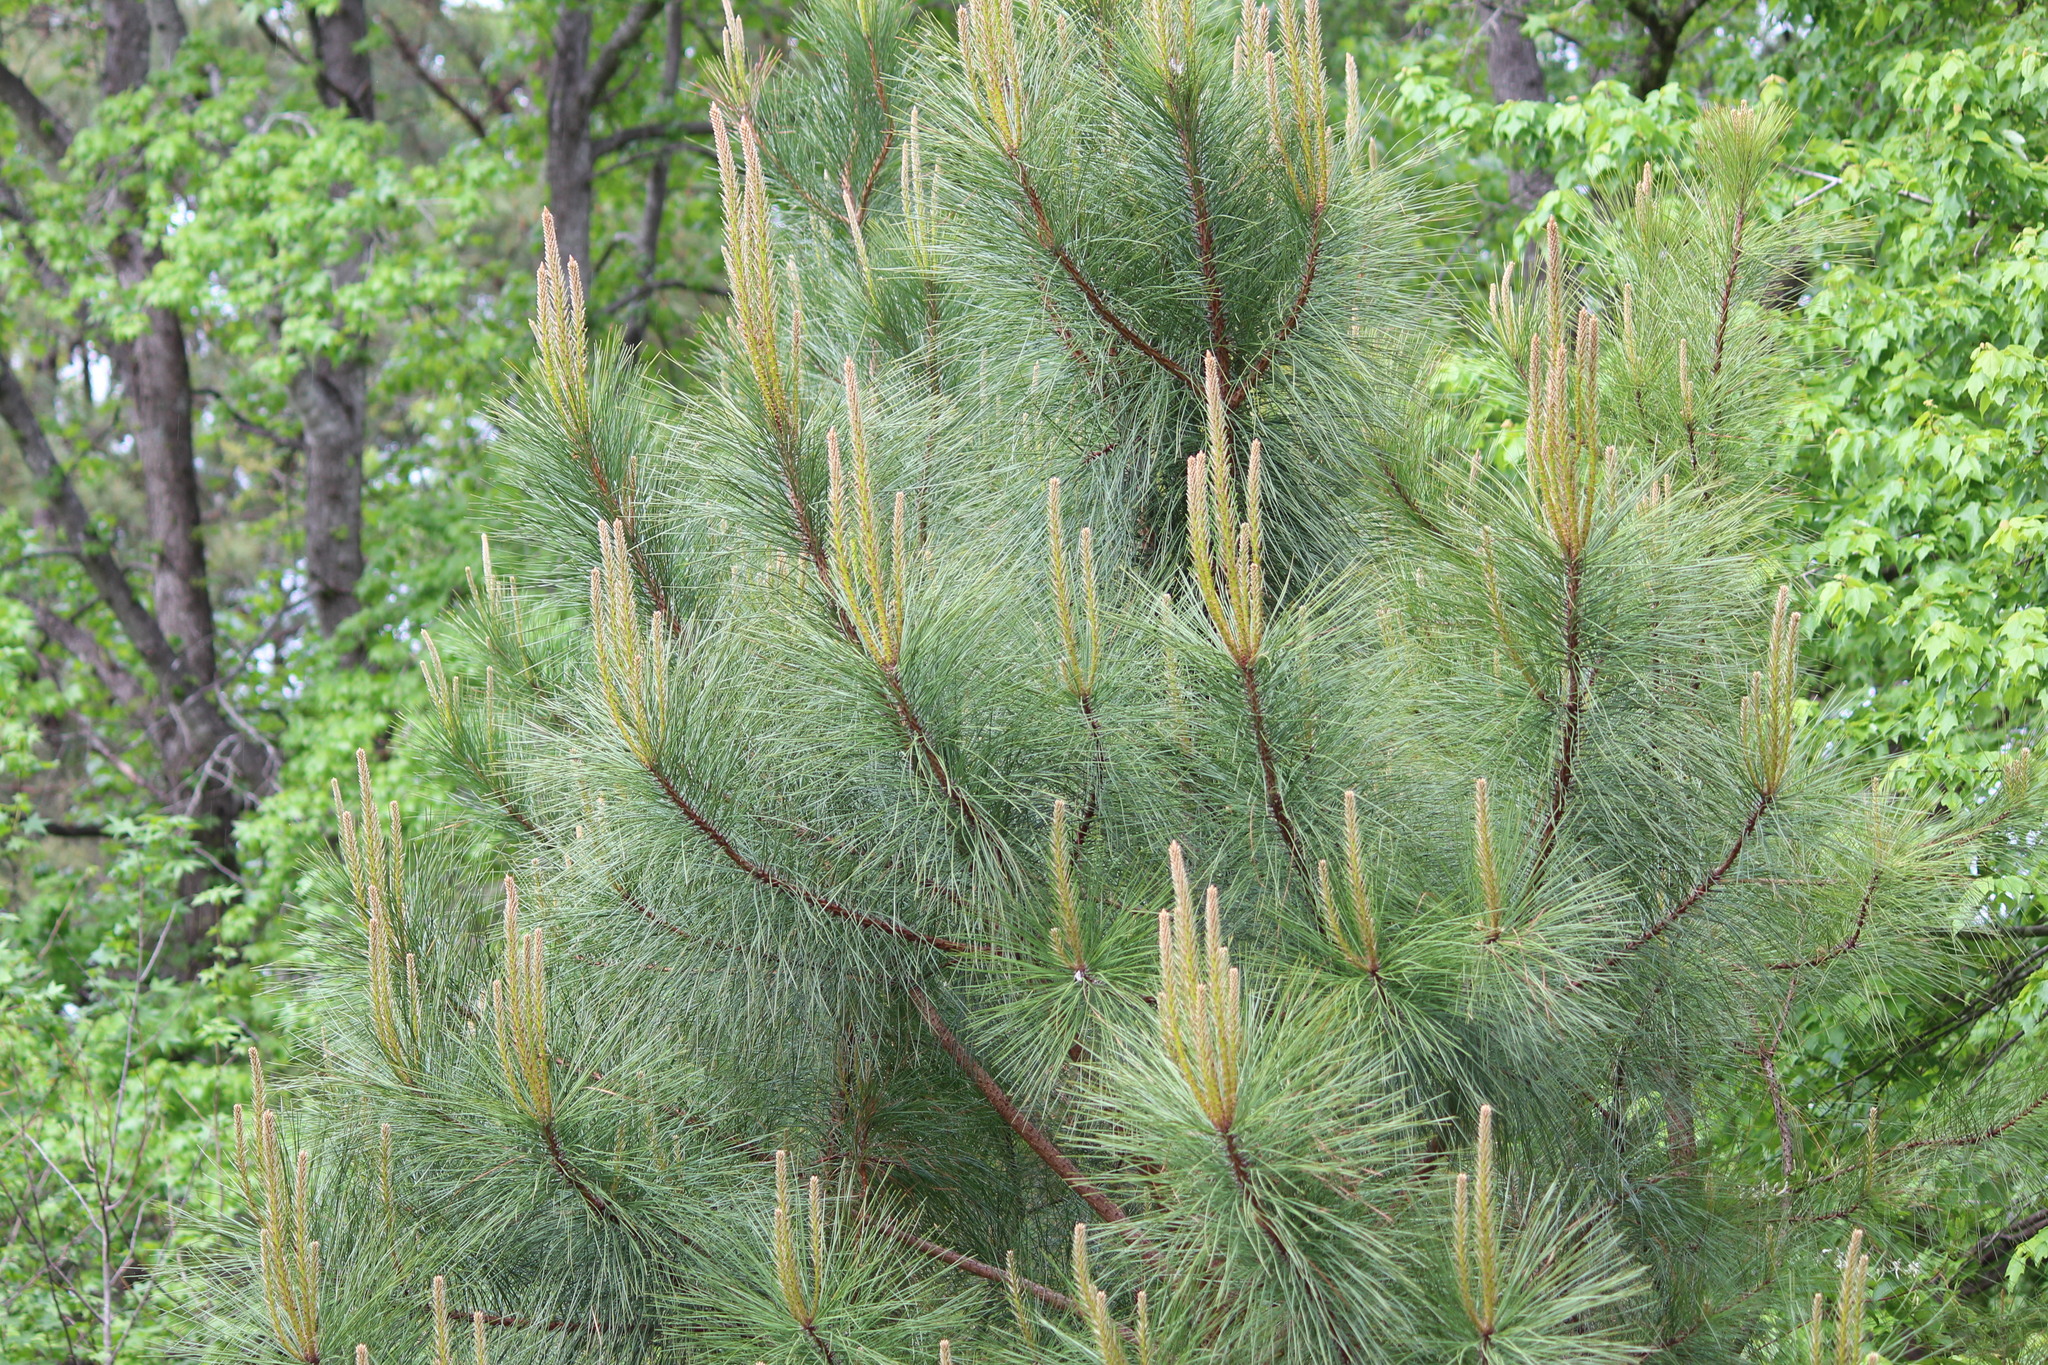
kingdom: Plantae
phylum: Tracheophyta
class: Pinopsida
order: Pinales
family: Pinaceae
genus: Pinus
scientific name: Pinus taeda
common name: Loblolly pine
